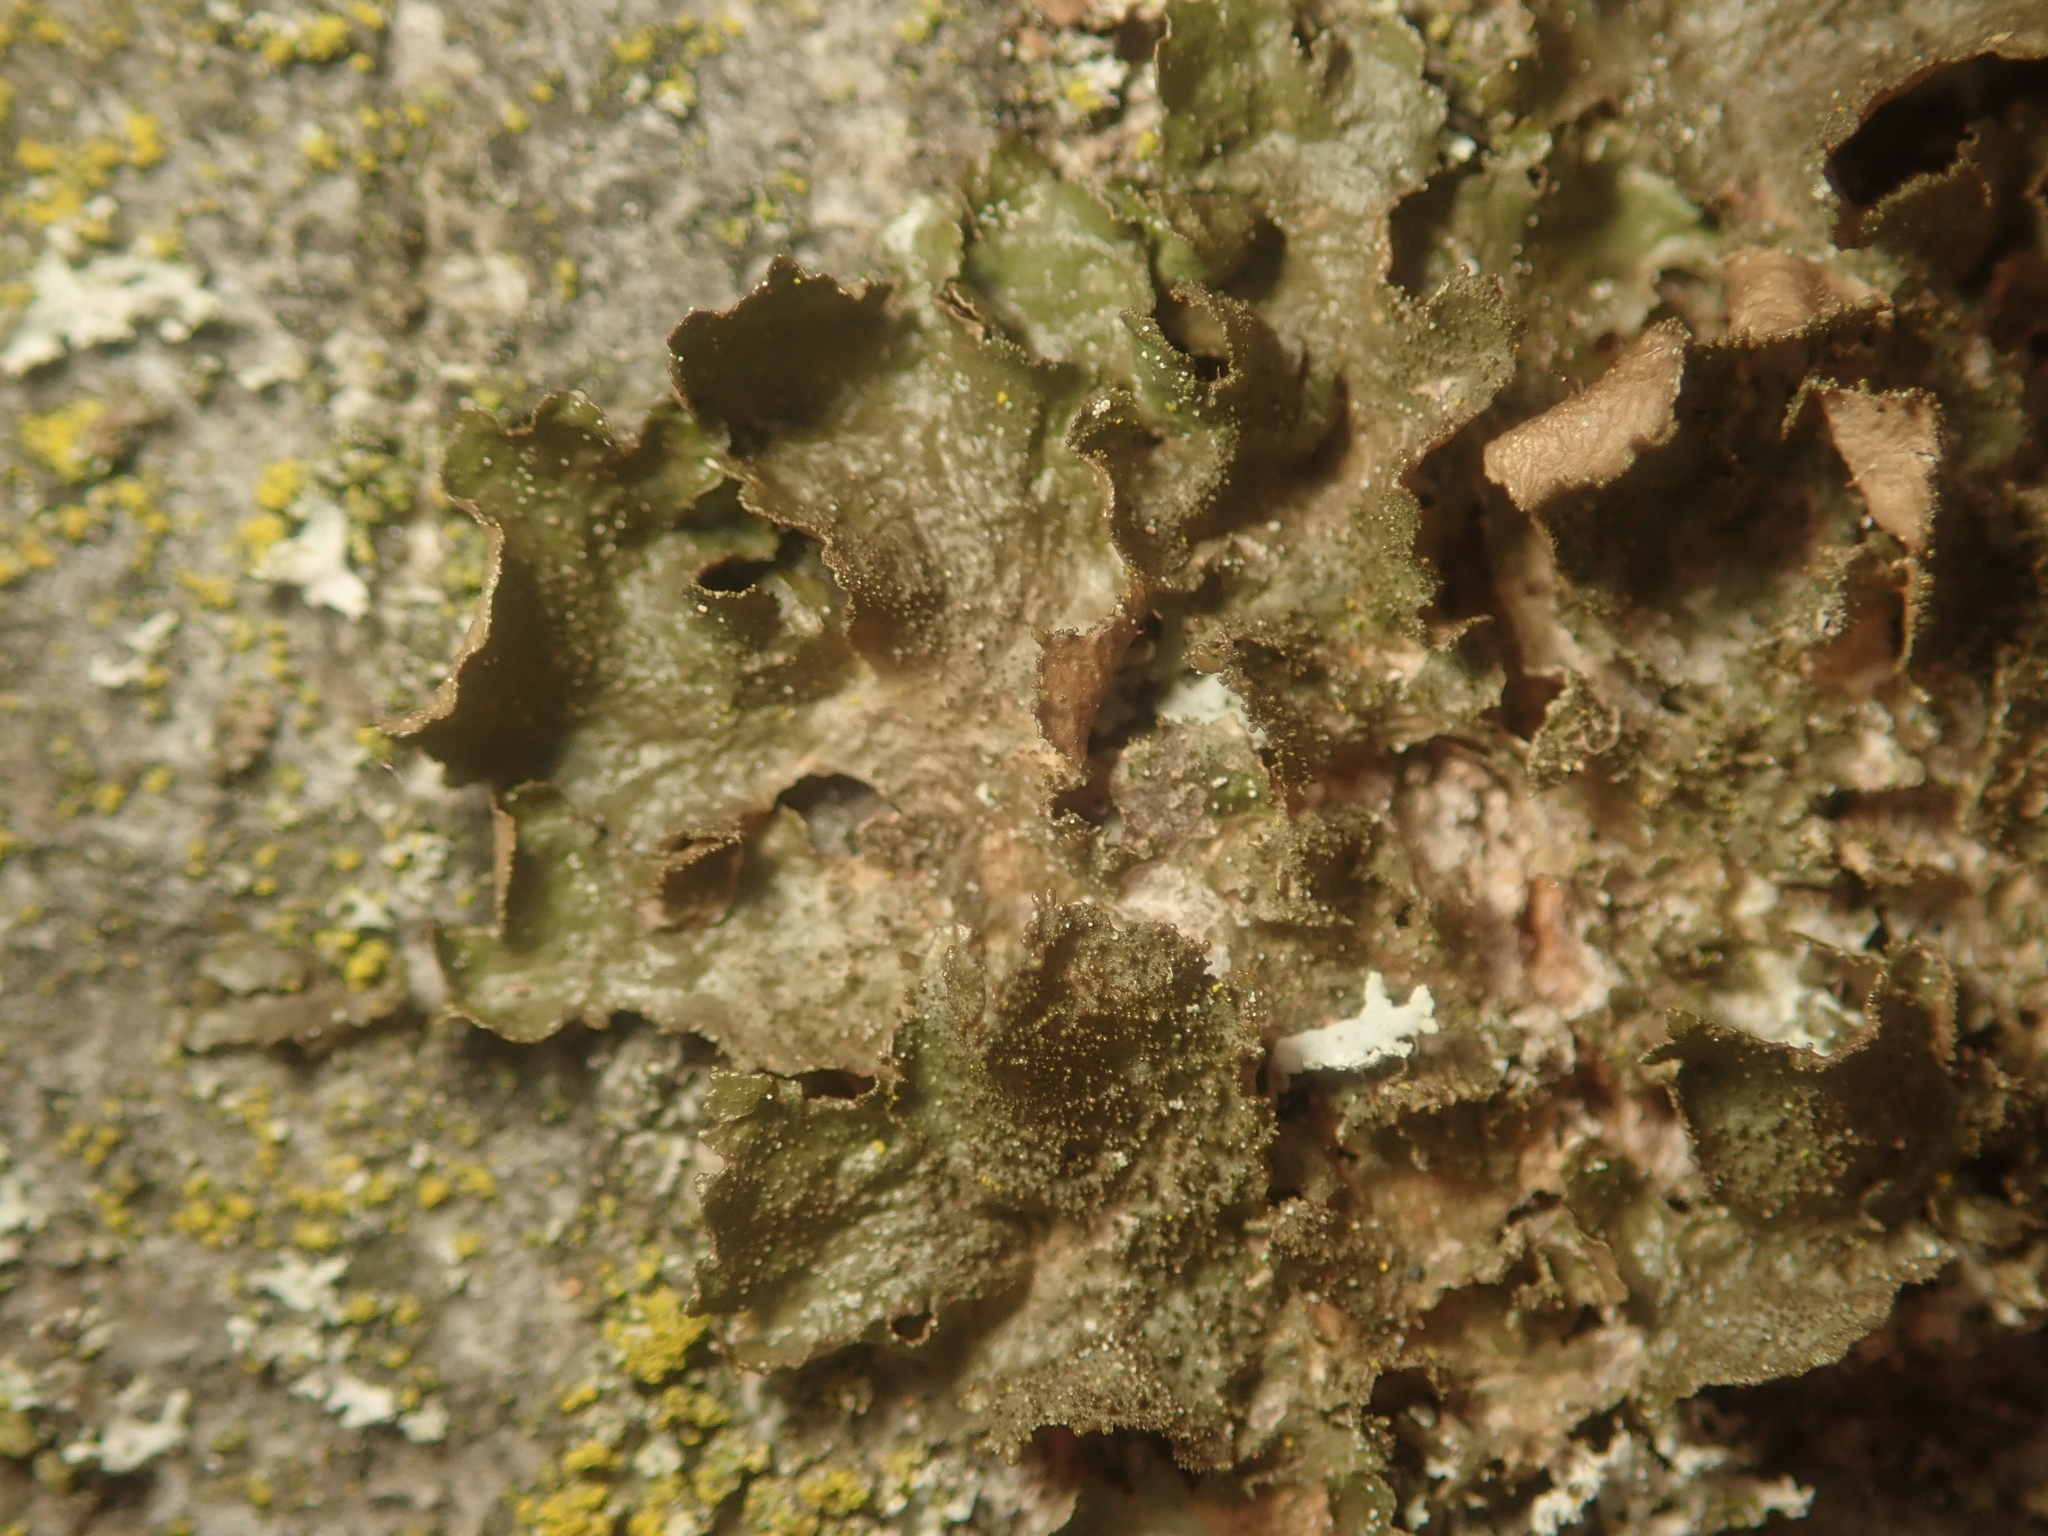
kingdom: Fungi
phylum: Ascomycota
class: Lecanoromycetes
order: Lecanorales
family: Parmeliaceae
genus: Melanohalea
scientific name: Melanohalea exasperatula
